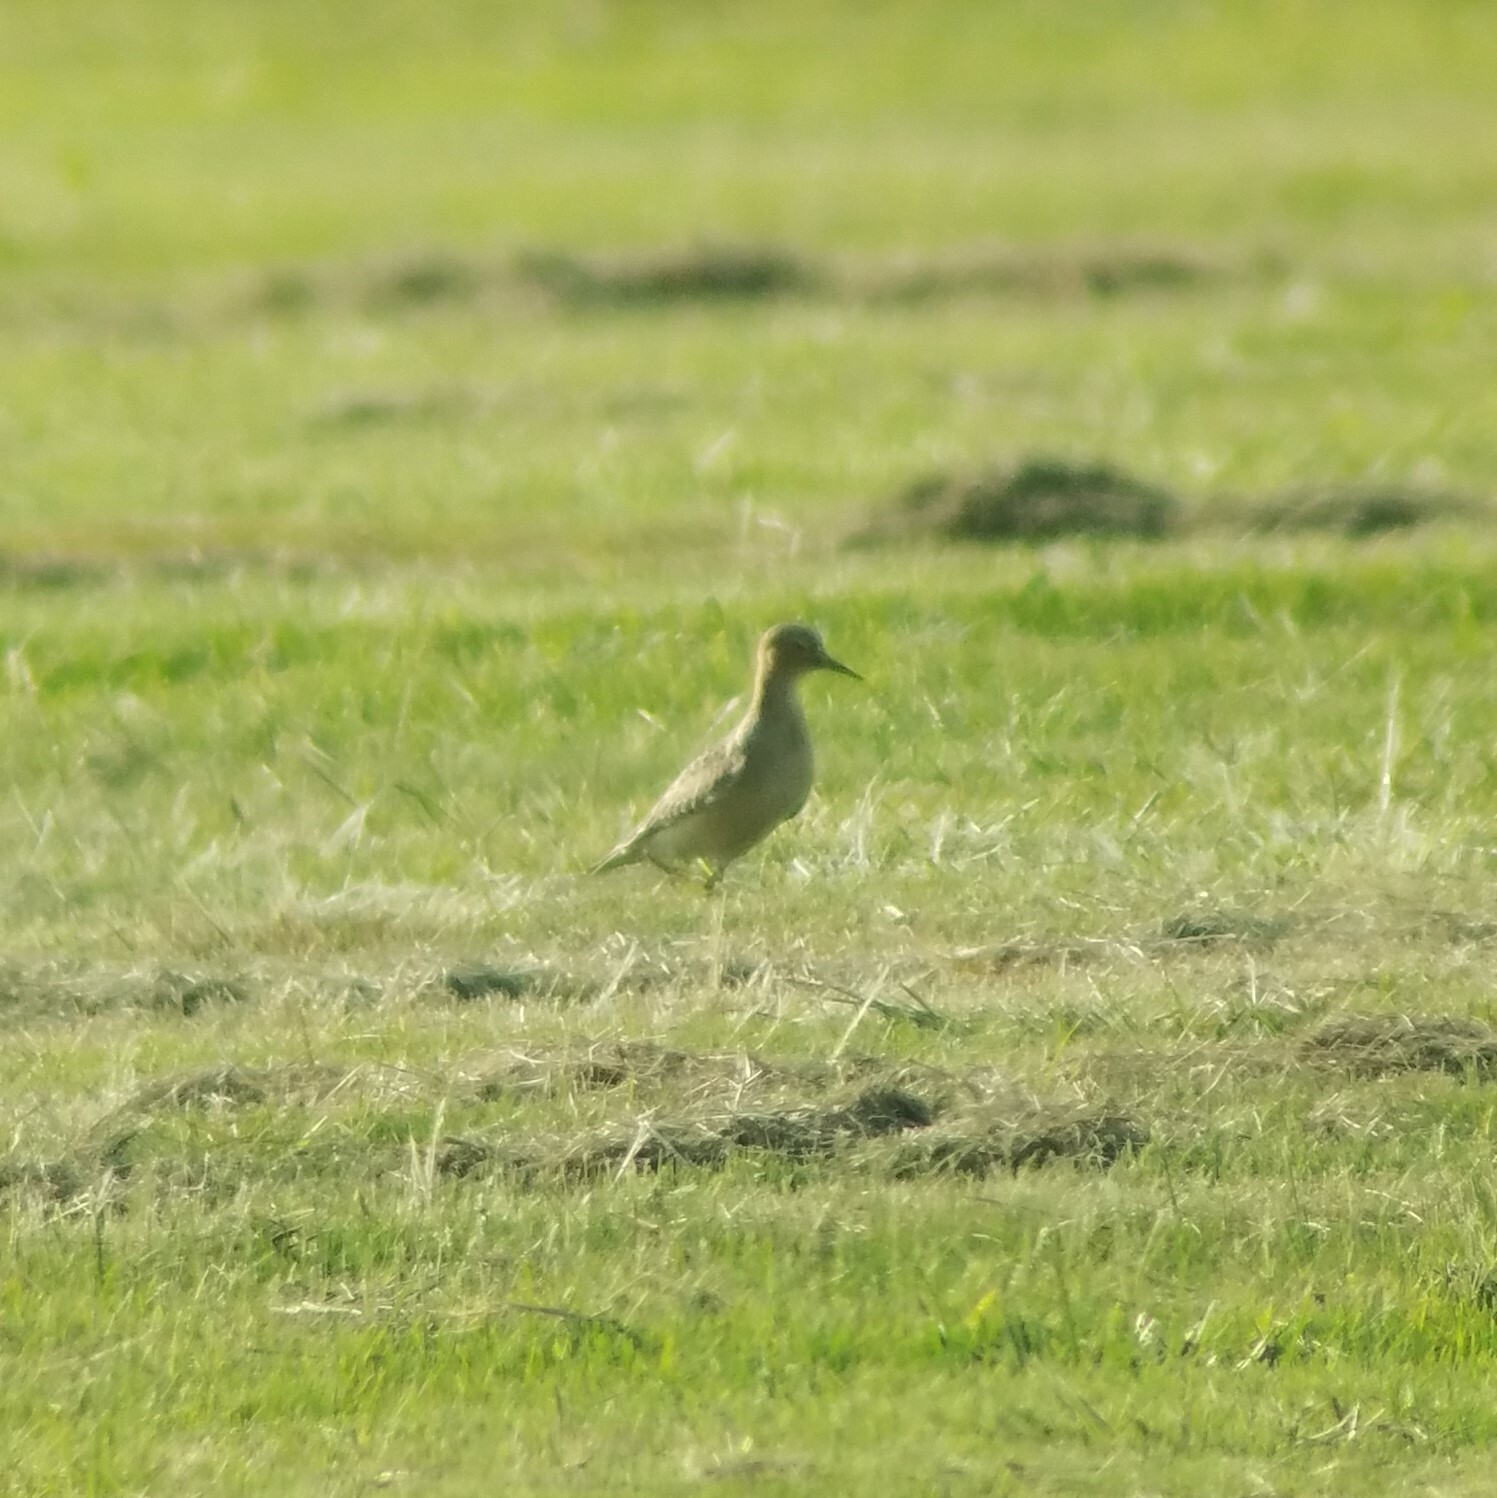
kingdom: Animalia
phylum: Chordata
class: Aves
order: Charadriiformes
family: Scolopacidae
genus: Calidris
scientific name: Calidris subruficollis
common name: Buff-breasted sandpiper
